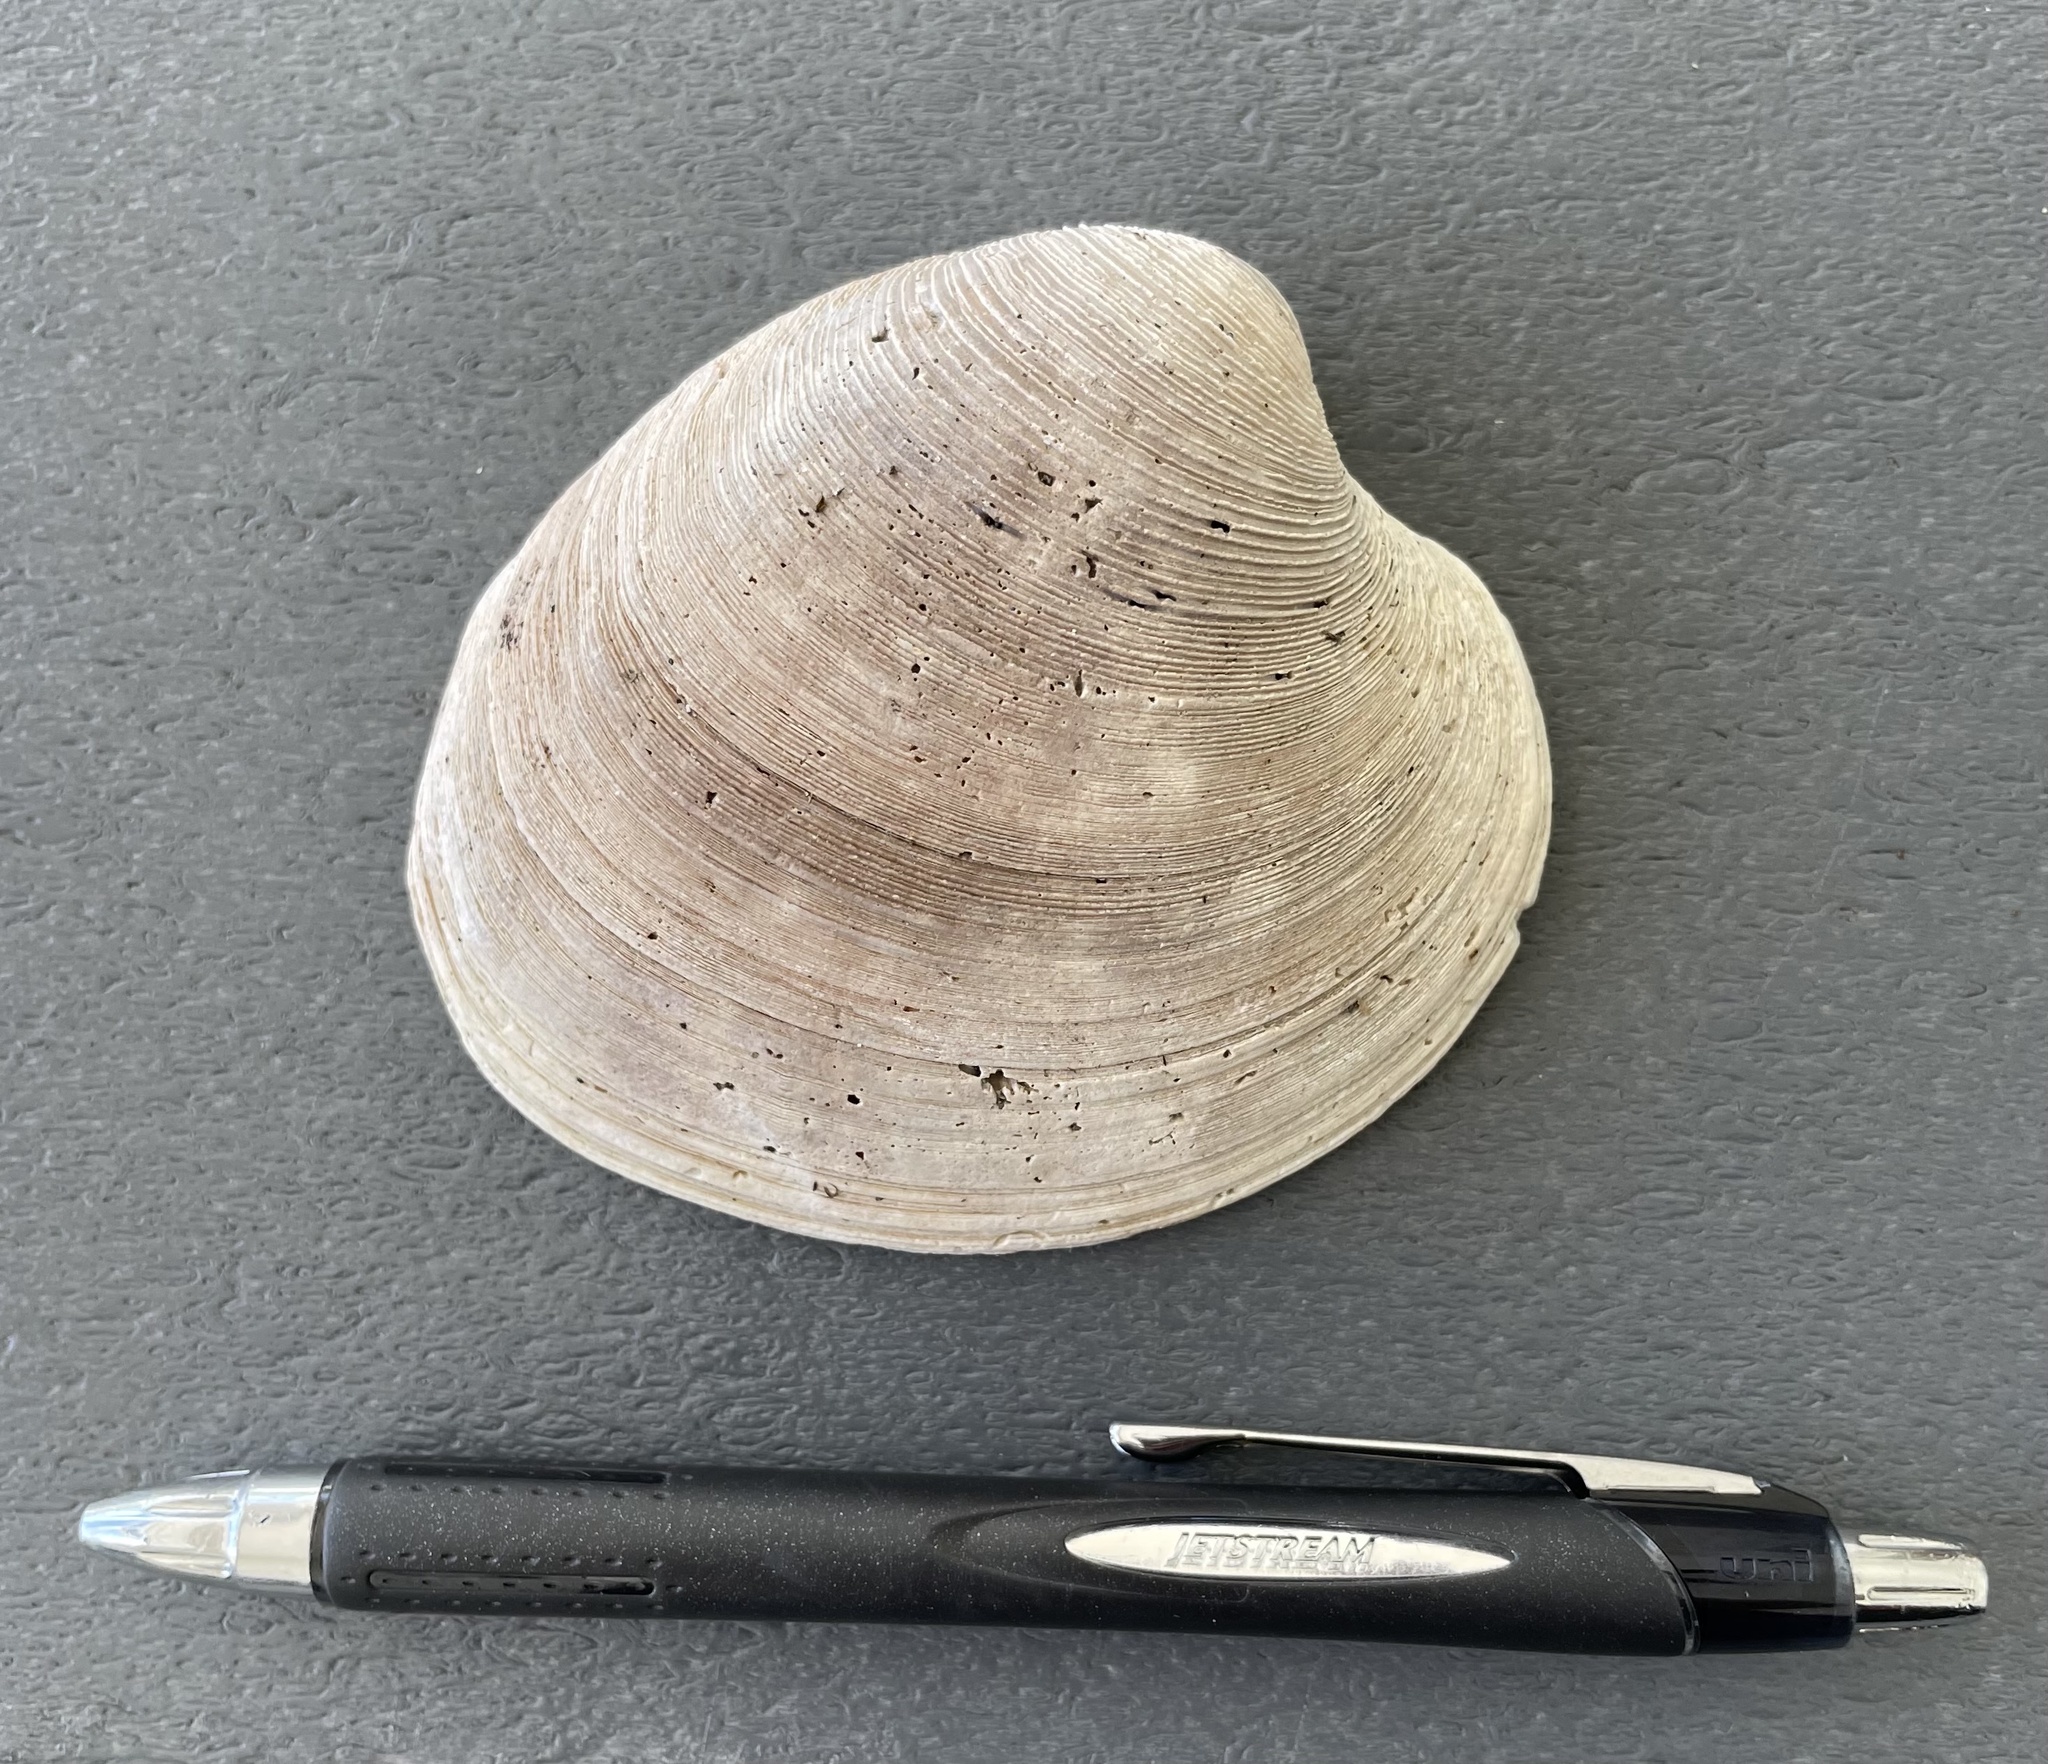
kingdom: Animalia
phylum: Mollusca
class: Bivalvia
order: Venerida
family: Veneridae
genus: Mercenaria
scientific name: Mercenaria campechiensis
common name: Südliche quahog-muschel
